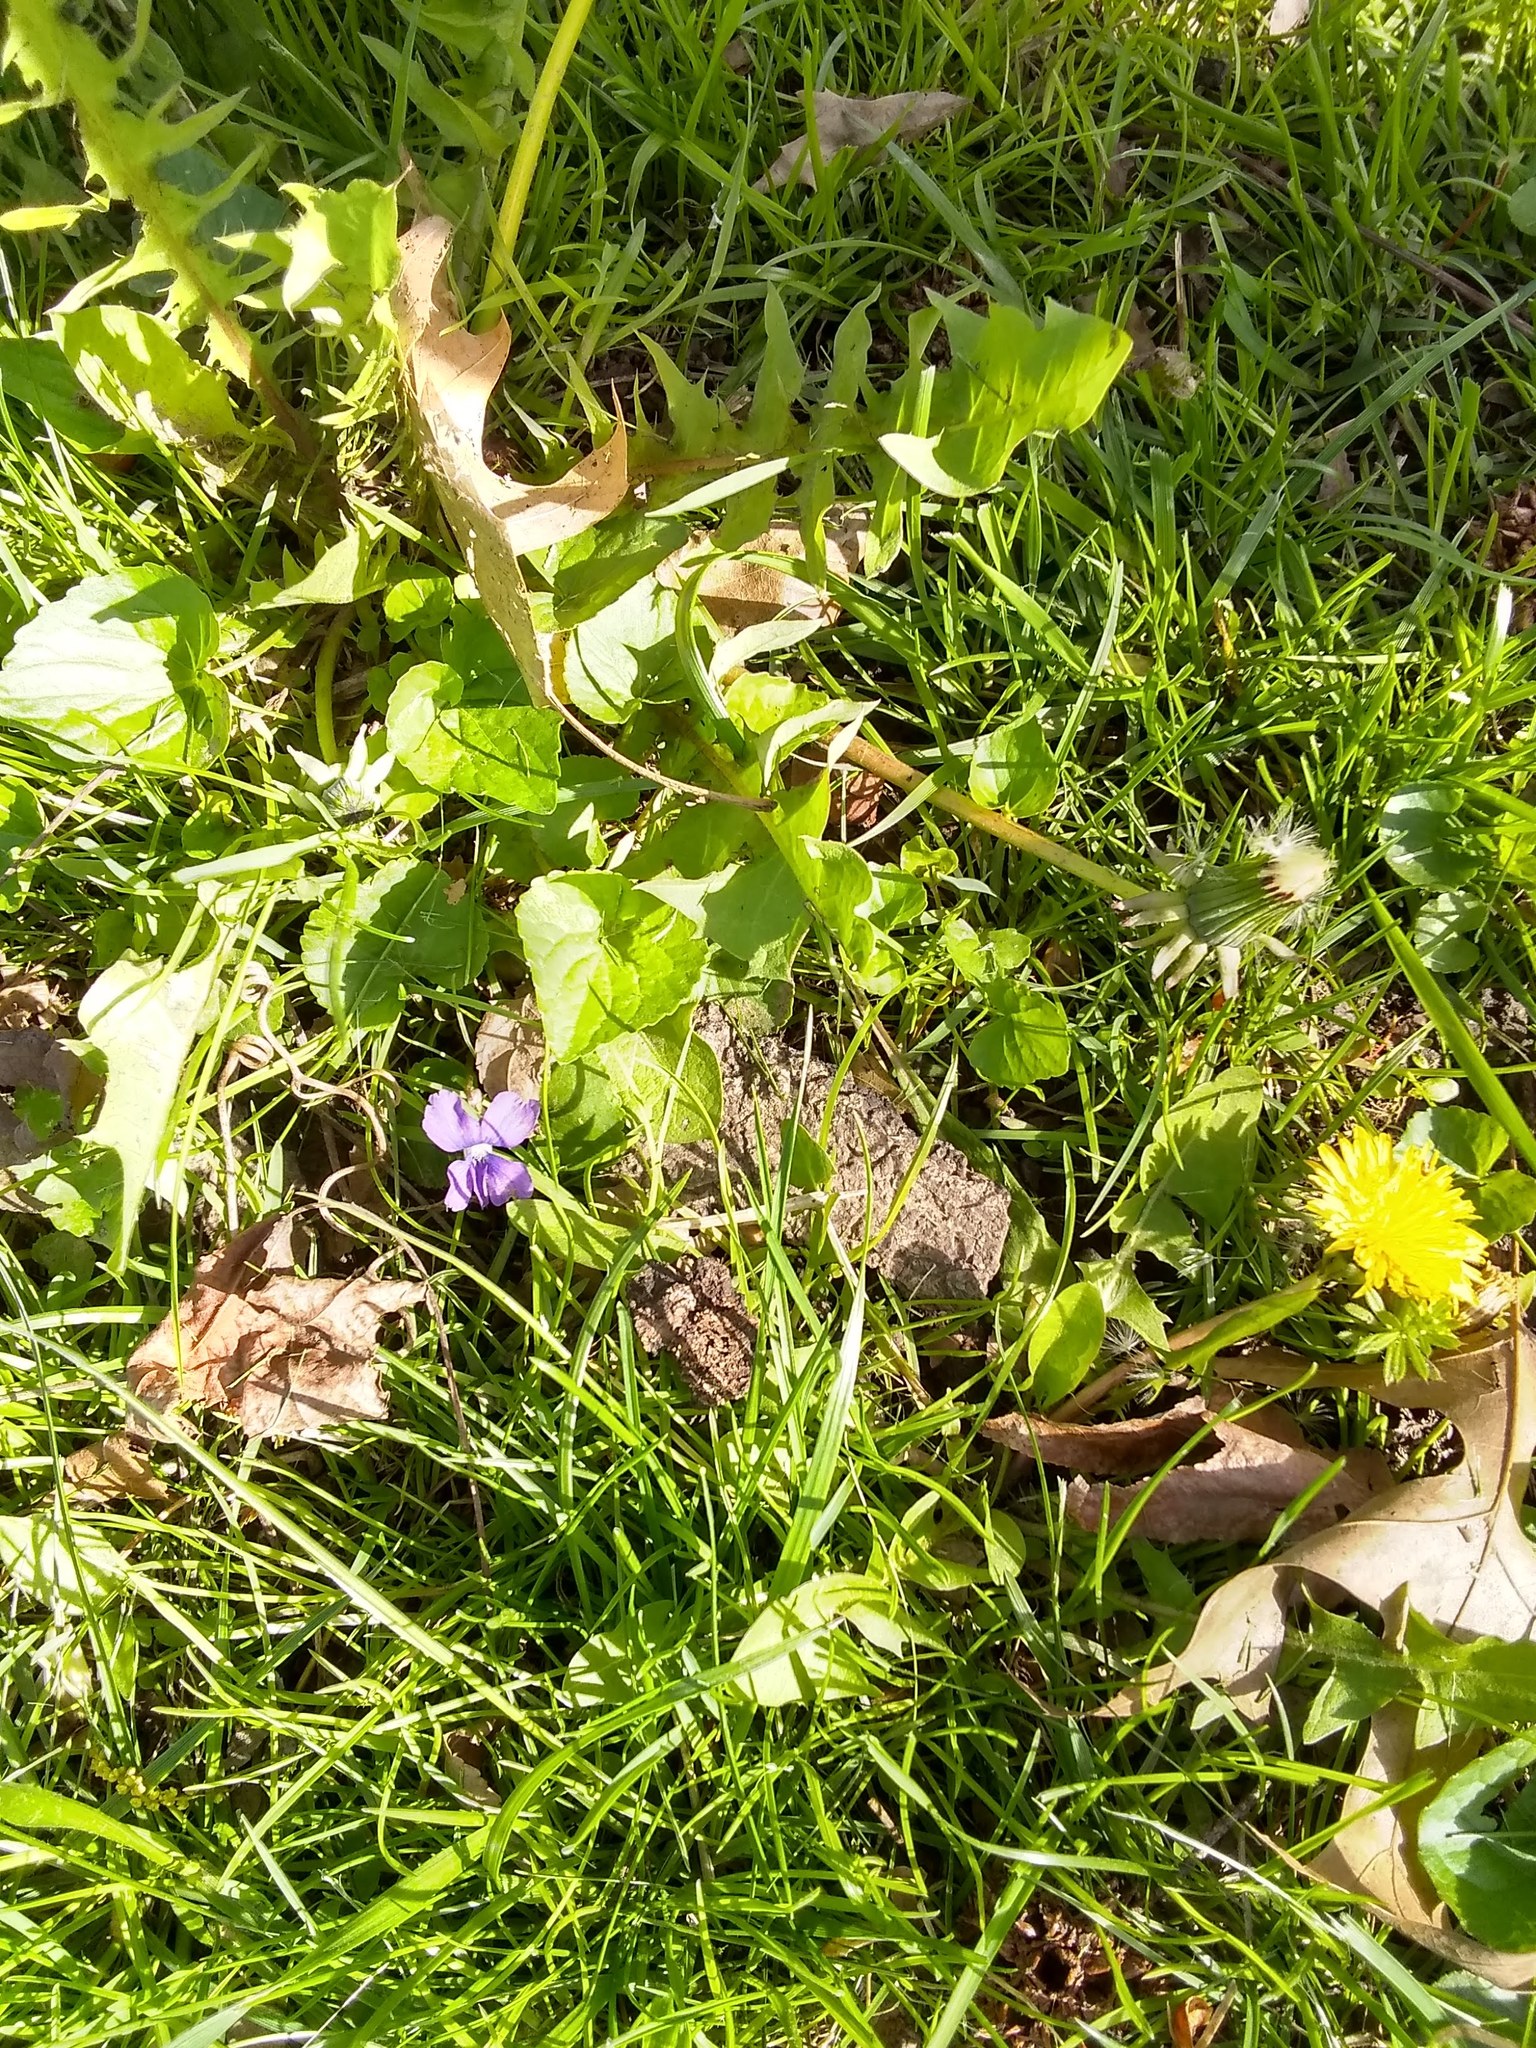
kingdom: Plantae
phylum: Tracheophyta
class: Magnoliopsida
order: Malpighiales
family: Violaceae
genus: Viola
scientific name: Viola sororia
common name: Dooryard violet
